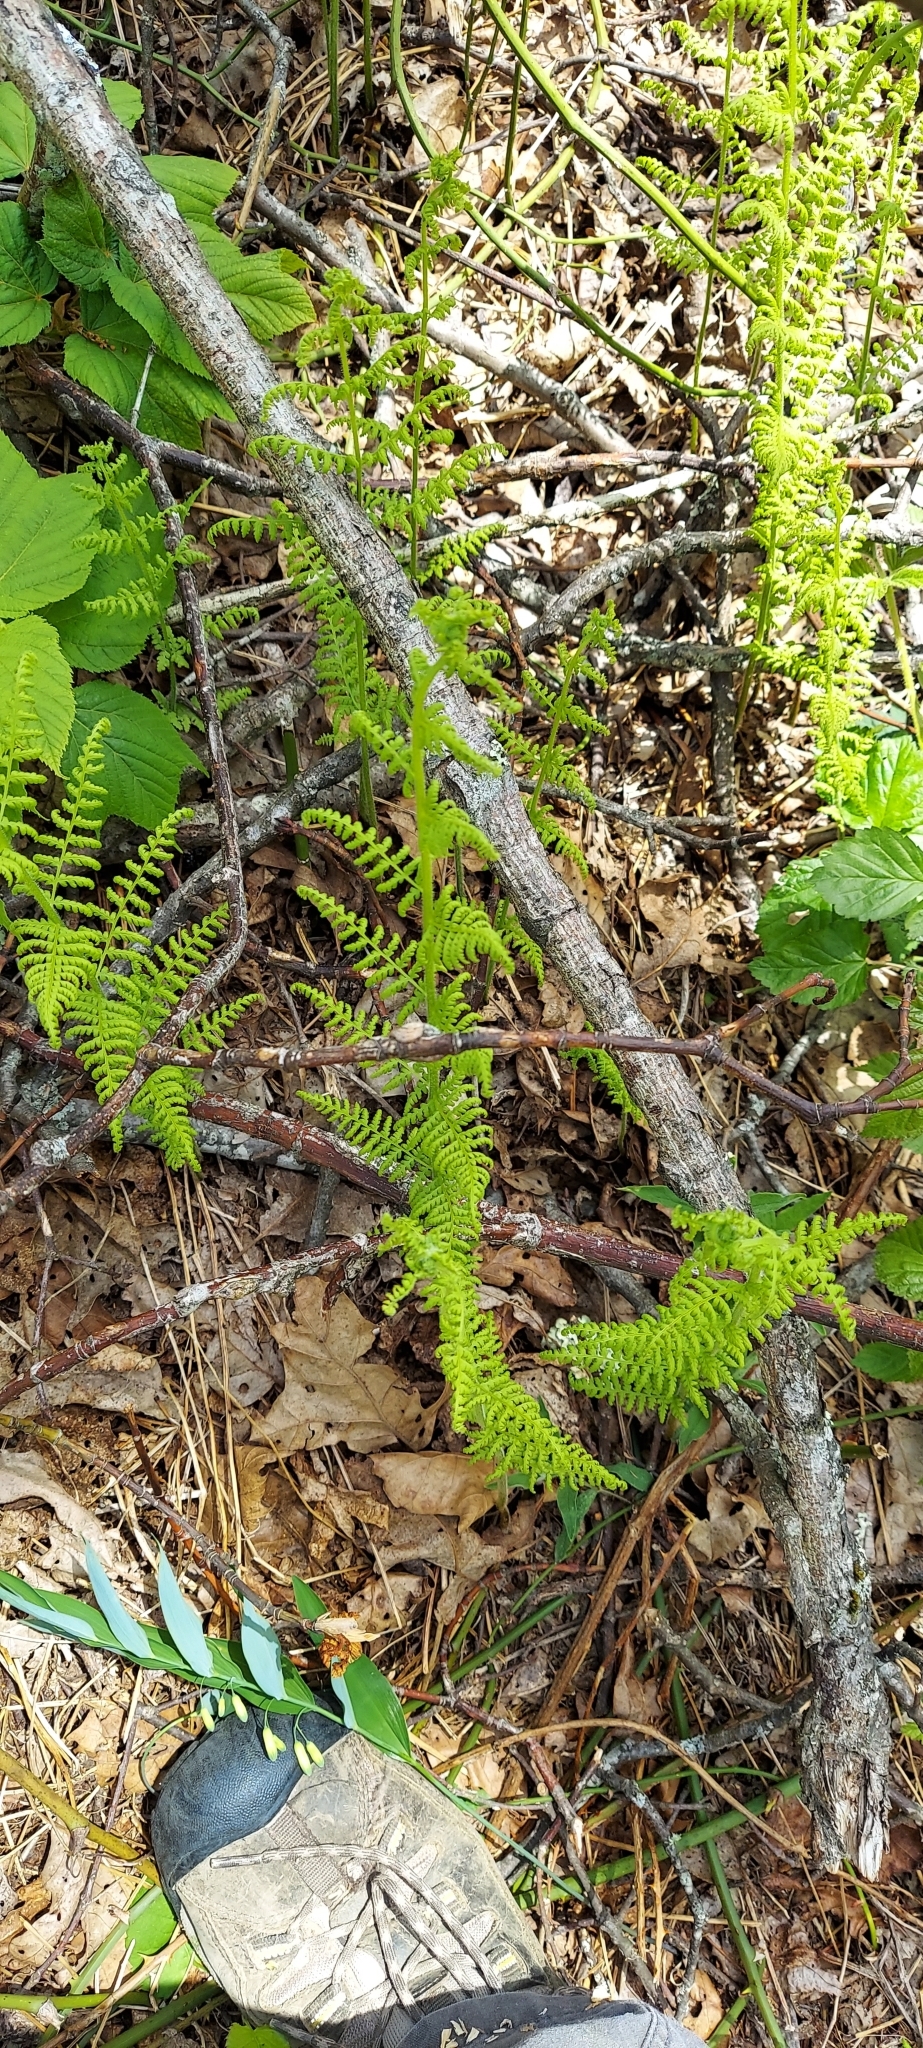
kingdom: Plantae
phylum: Tracheophyta
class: Polypodiopsida
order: Polypodiales
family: Dennstaedtiaceae
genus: Sitobolium
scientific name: Sitobolium punctilobum
